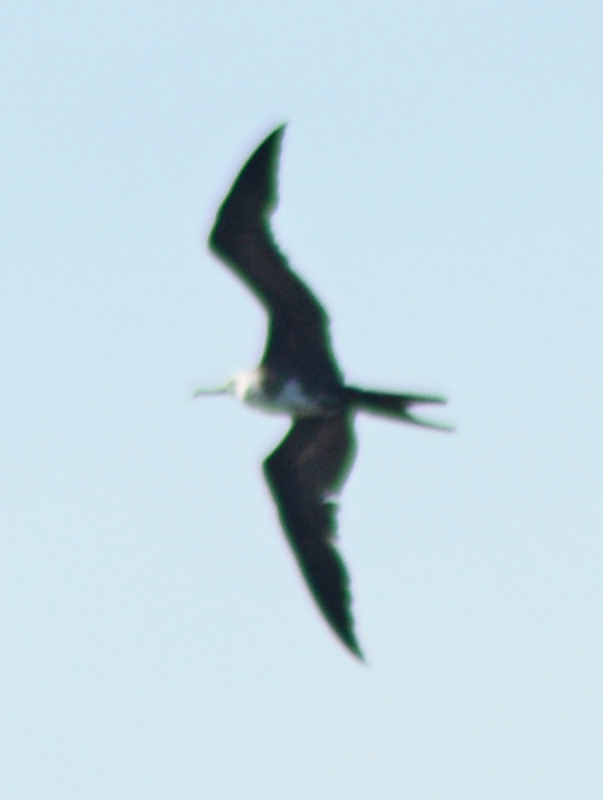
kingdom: Animalia
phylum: Chordata
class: Aves
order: Suliformes
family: Fregatidae
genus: Fregata
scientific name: Fregata magnificens
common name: Magnificent frigatebird
